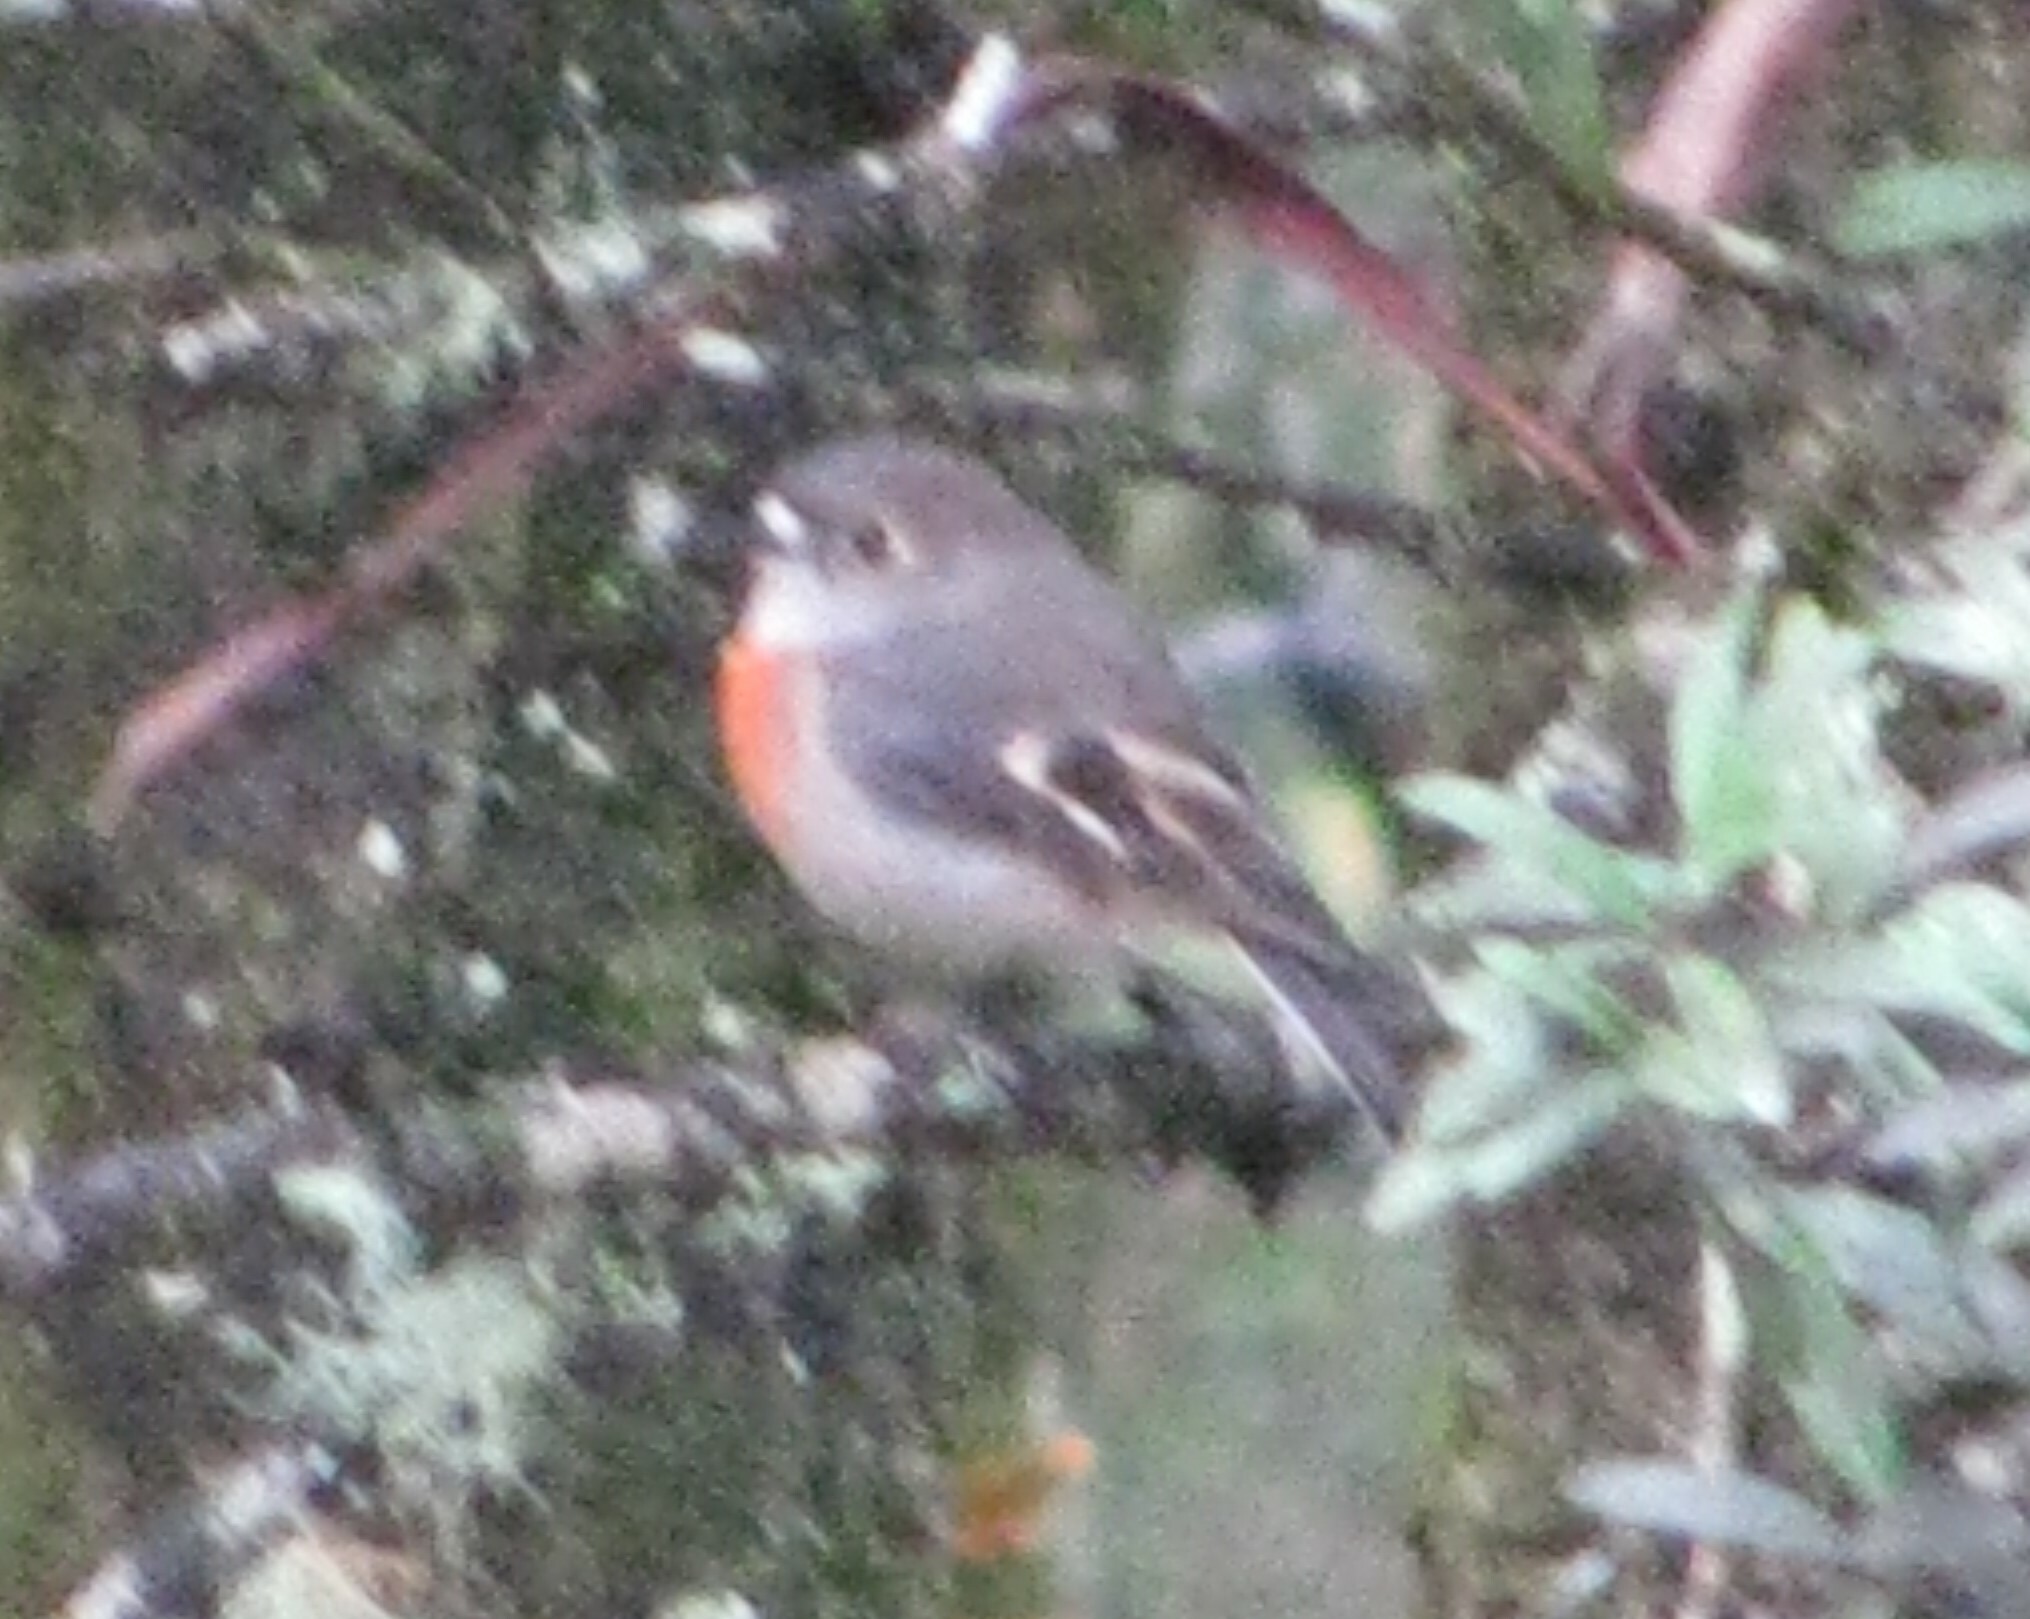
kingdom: Animalia
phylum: Chordata
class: Aves
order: Passeriformes
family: Petroicidae
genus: Petroica
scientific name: Petroica boodang
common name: Scarlet robin
